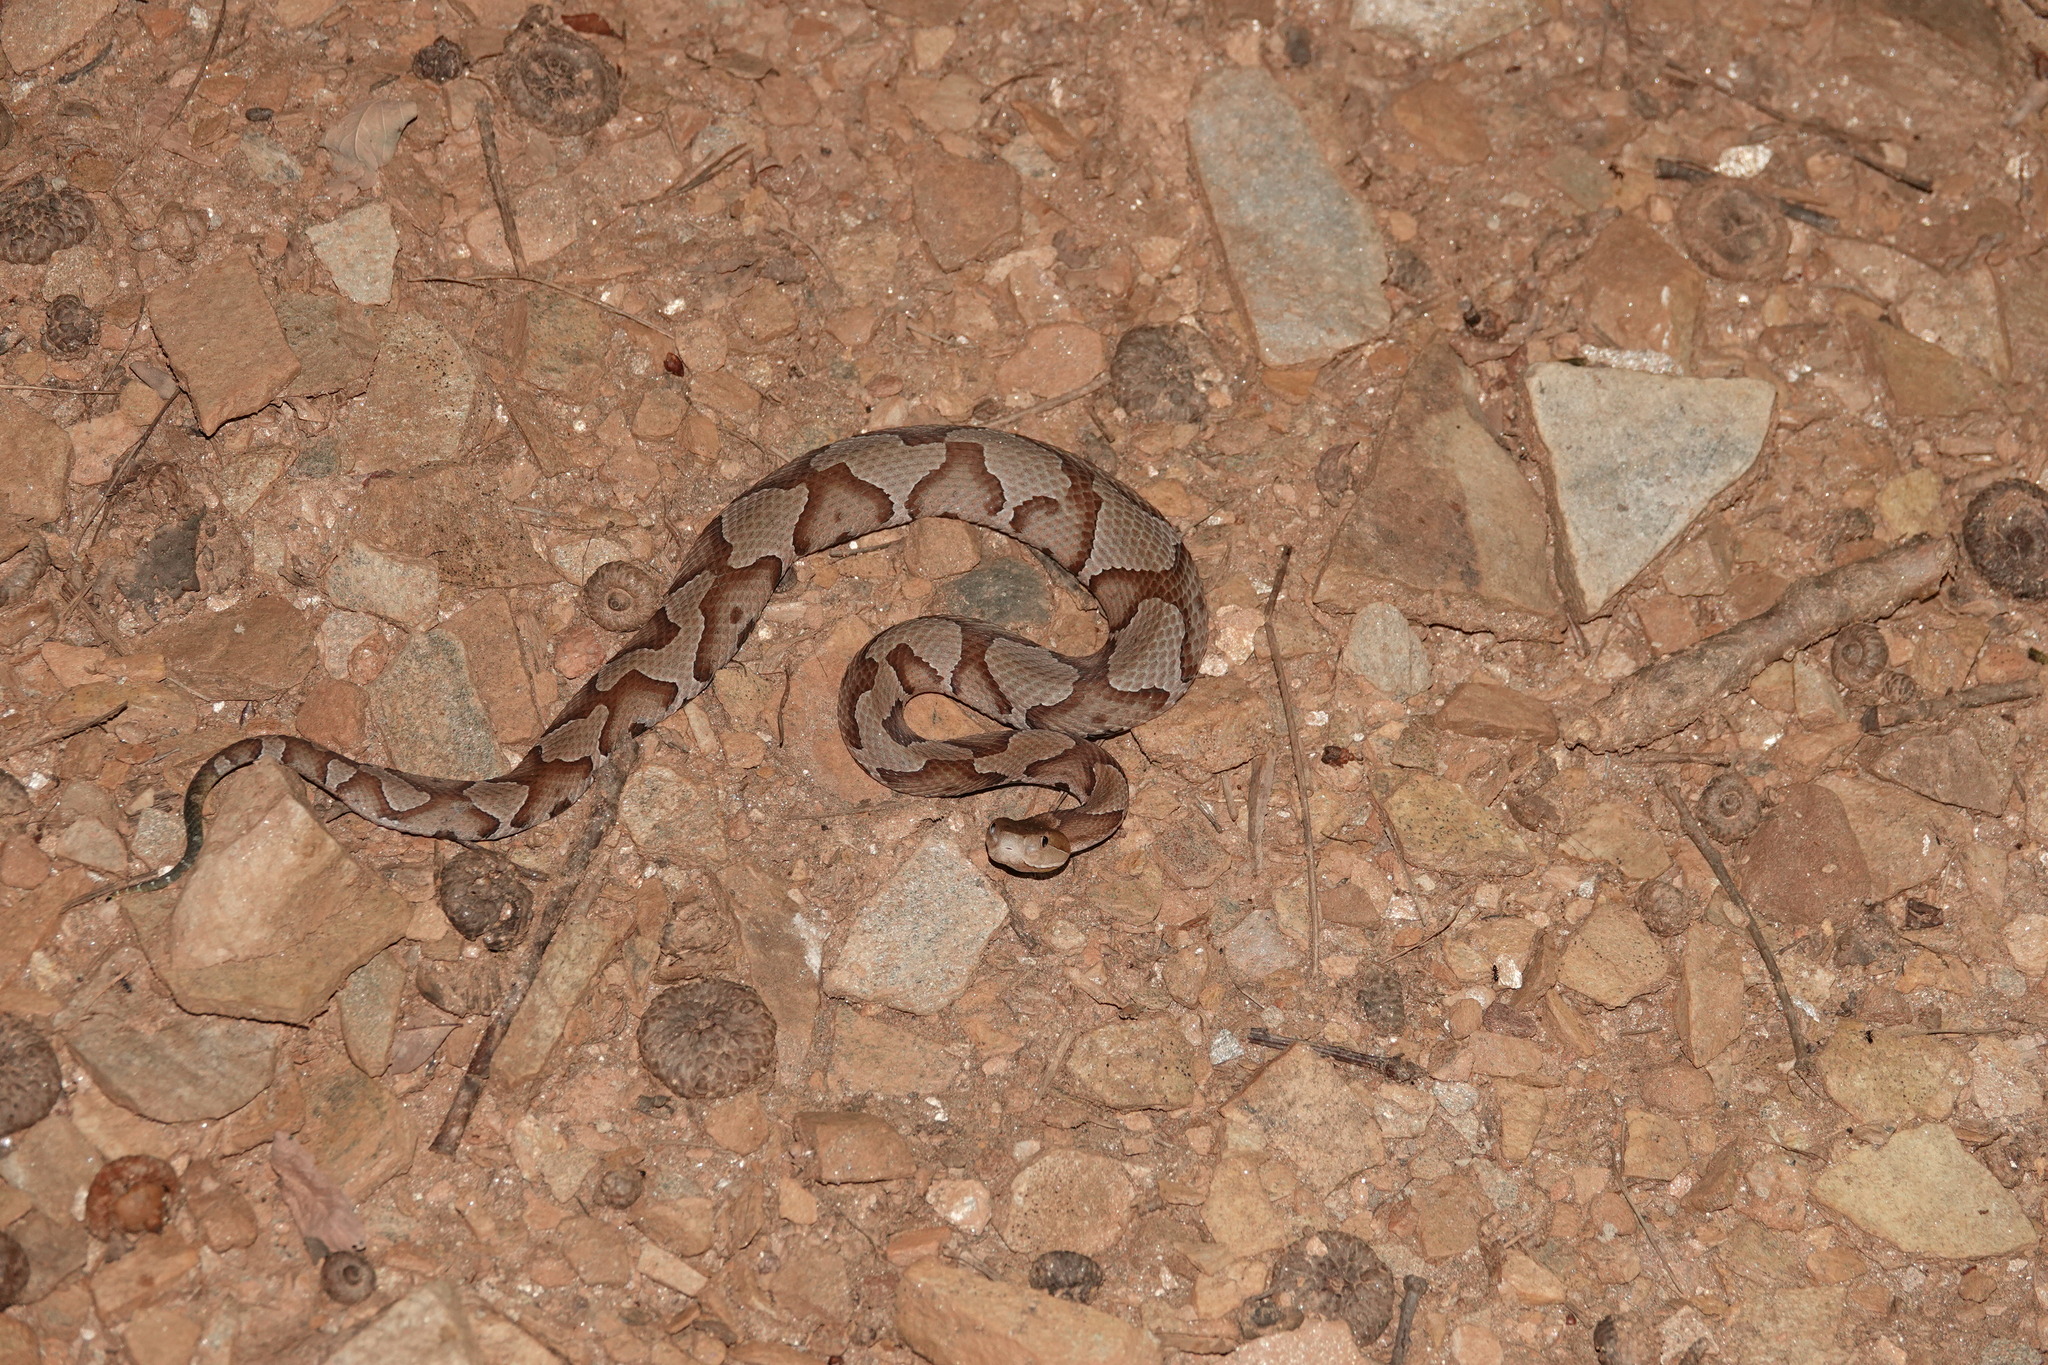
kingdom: Animalia
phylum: Chordata
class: Squamata
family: Viperidae
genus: Agkistrodon
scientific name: Agkistrodon contortrix
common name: Northern copperhead
